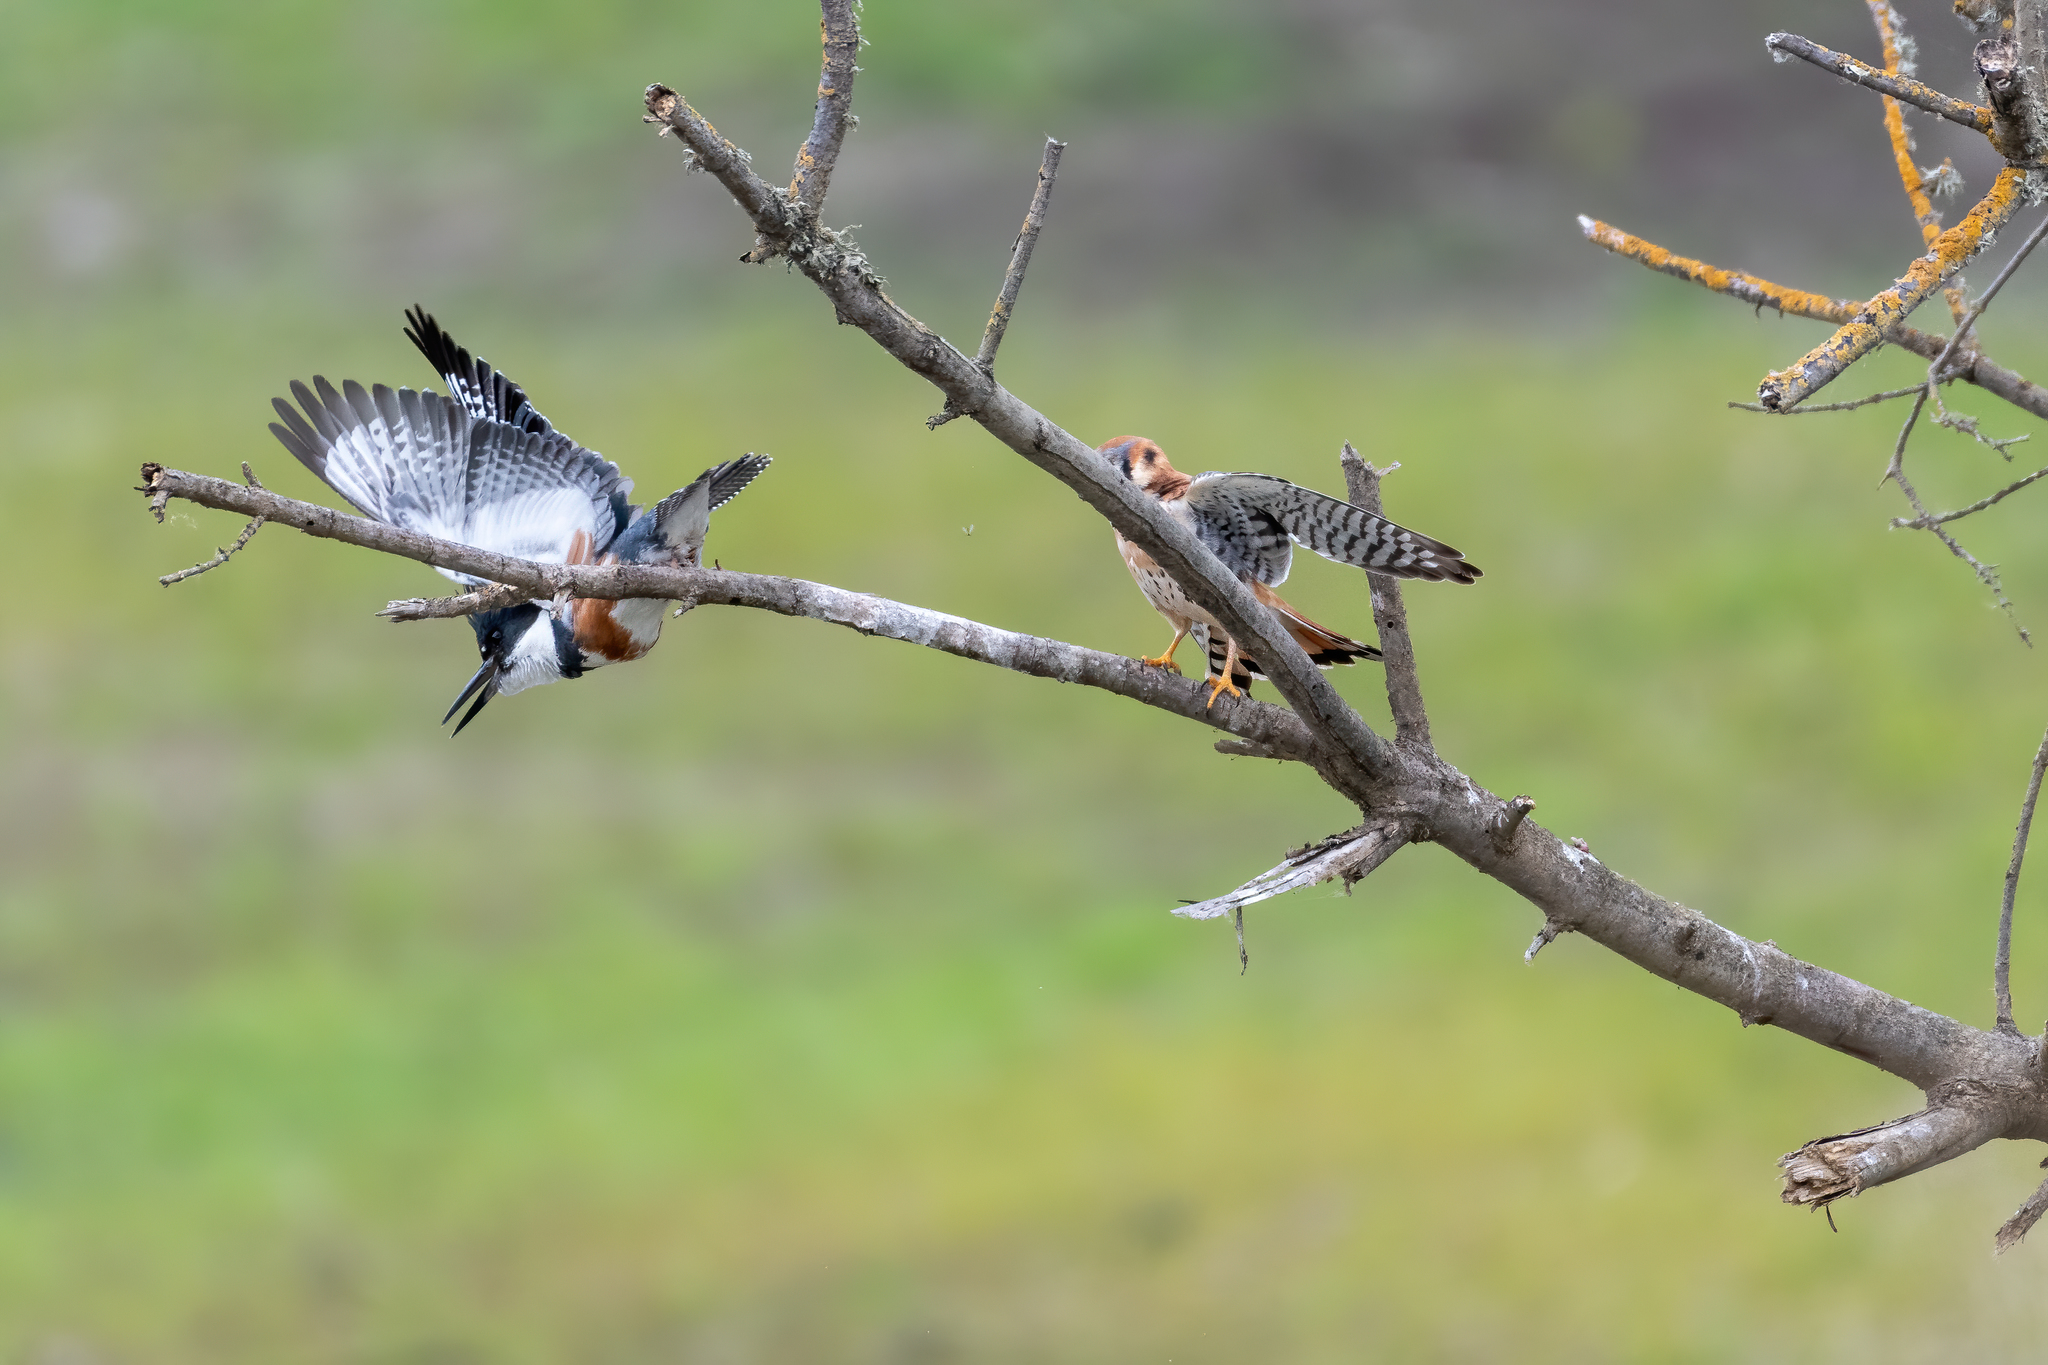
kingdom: Animalia
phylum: Chordata
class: Aves
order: Coraciiformes
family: Alcedinidae
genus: Megaceryle
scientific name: Megaceryle alcyon
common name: Belted kingfisher
